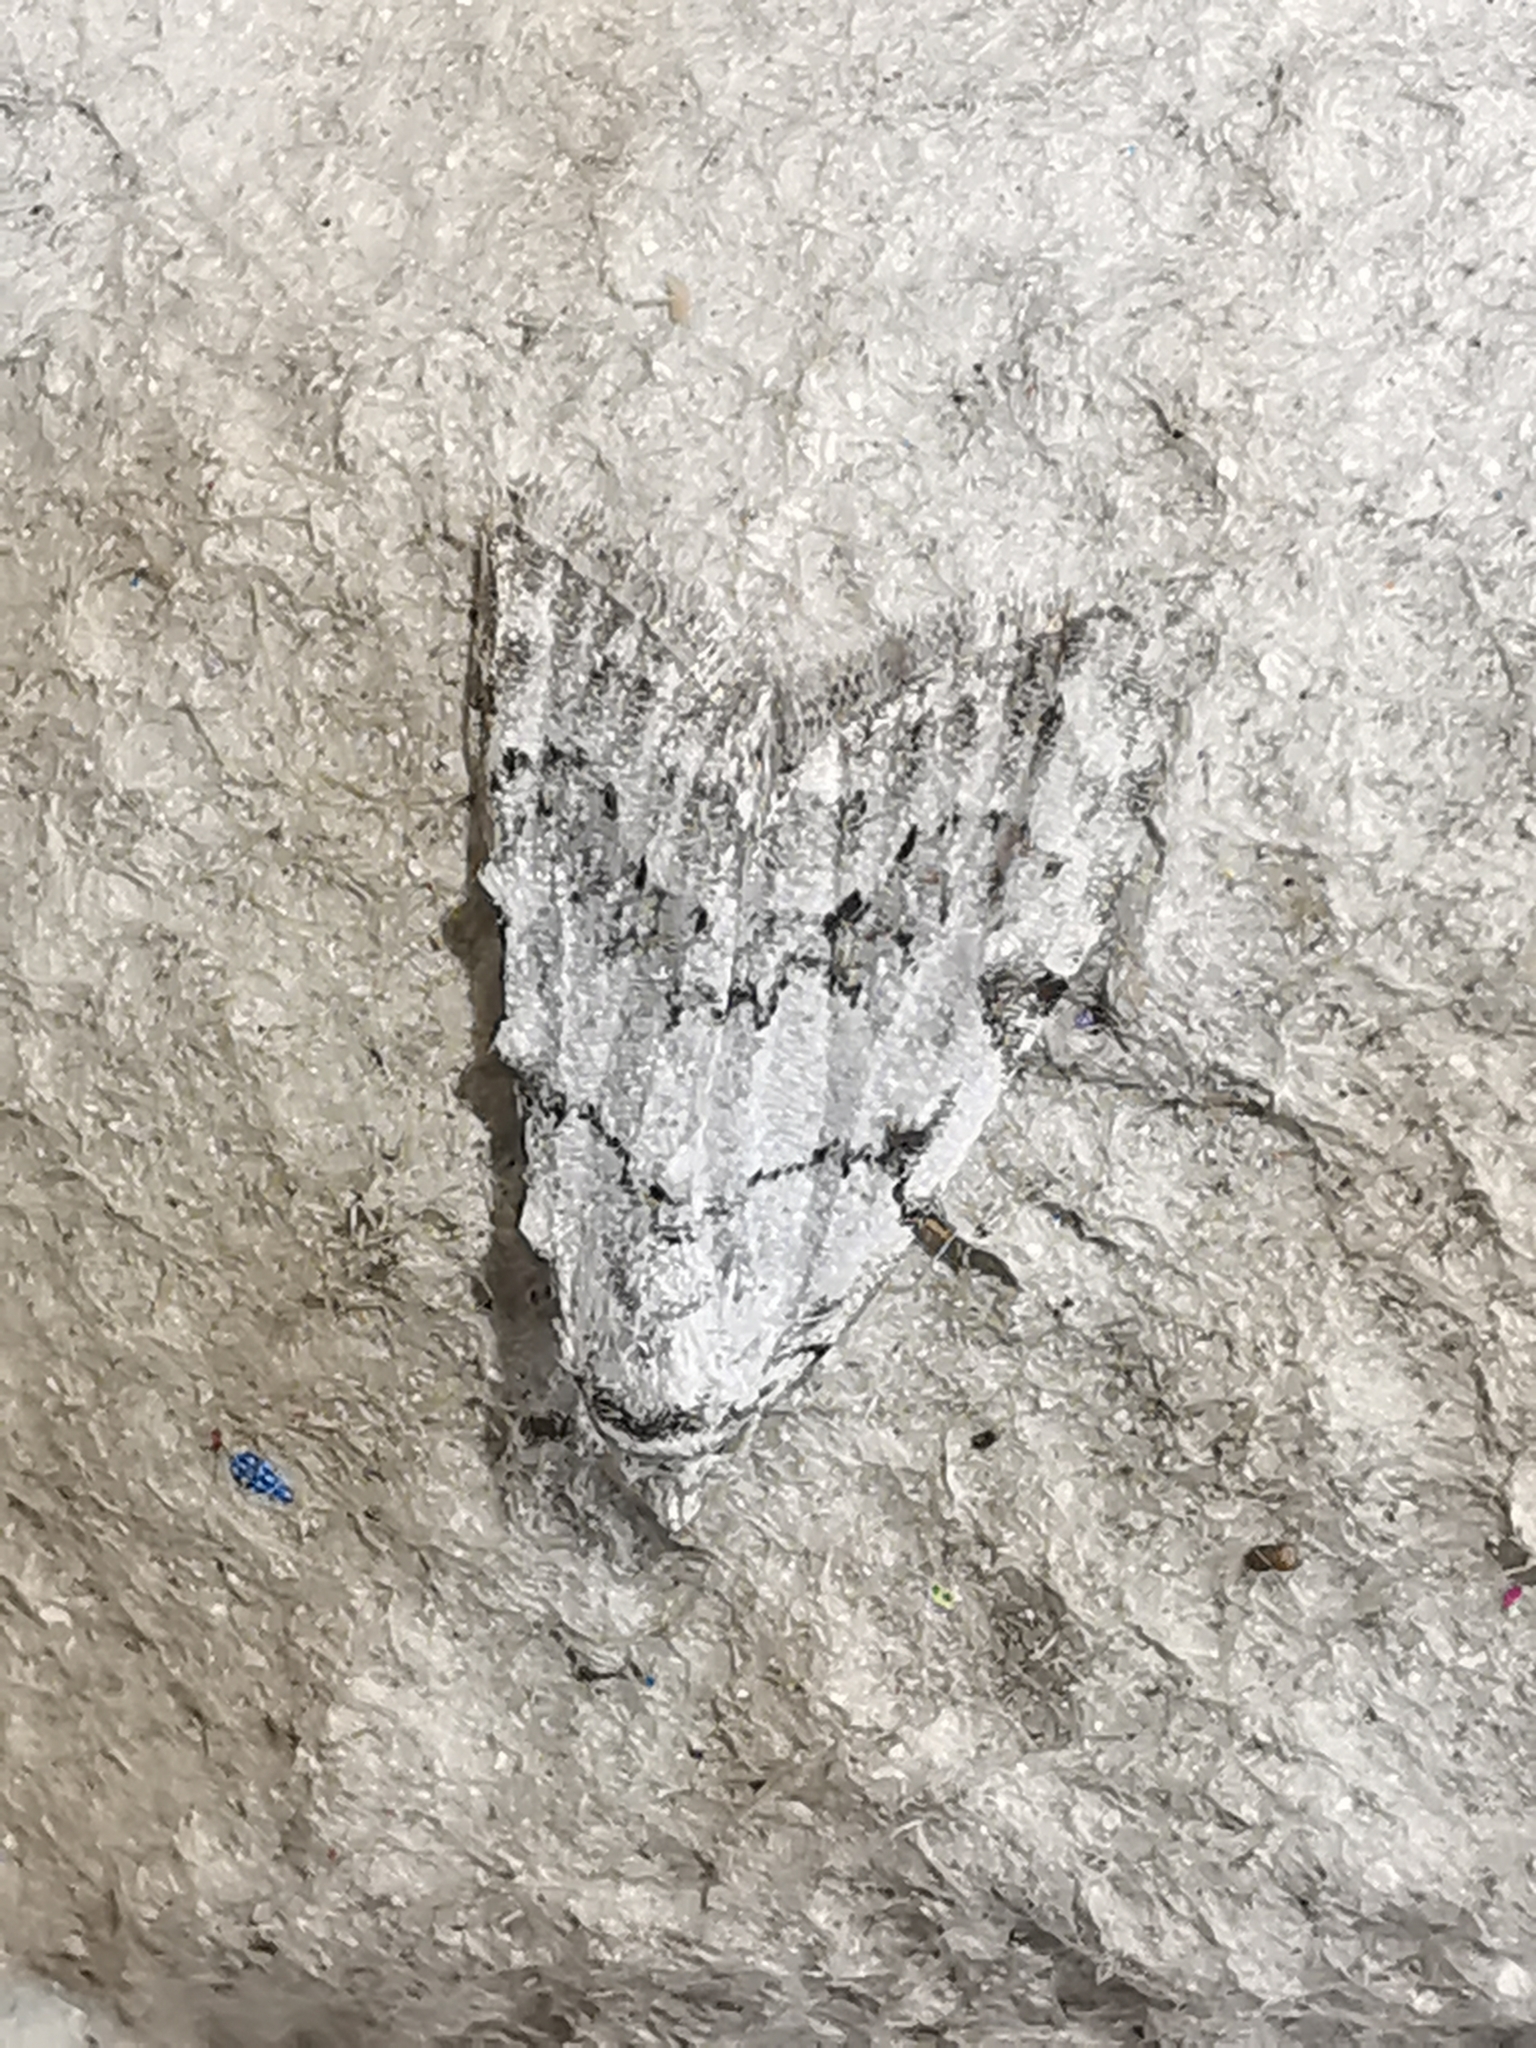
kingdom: Animalia
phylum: Arthropoda
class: Insecta
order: Lepidoptera
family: Nolidae
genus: Nola
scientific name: Nola confusalis
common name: Least black arches
